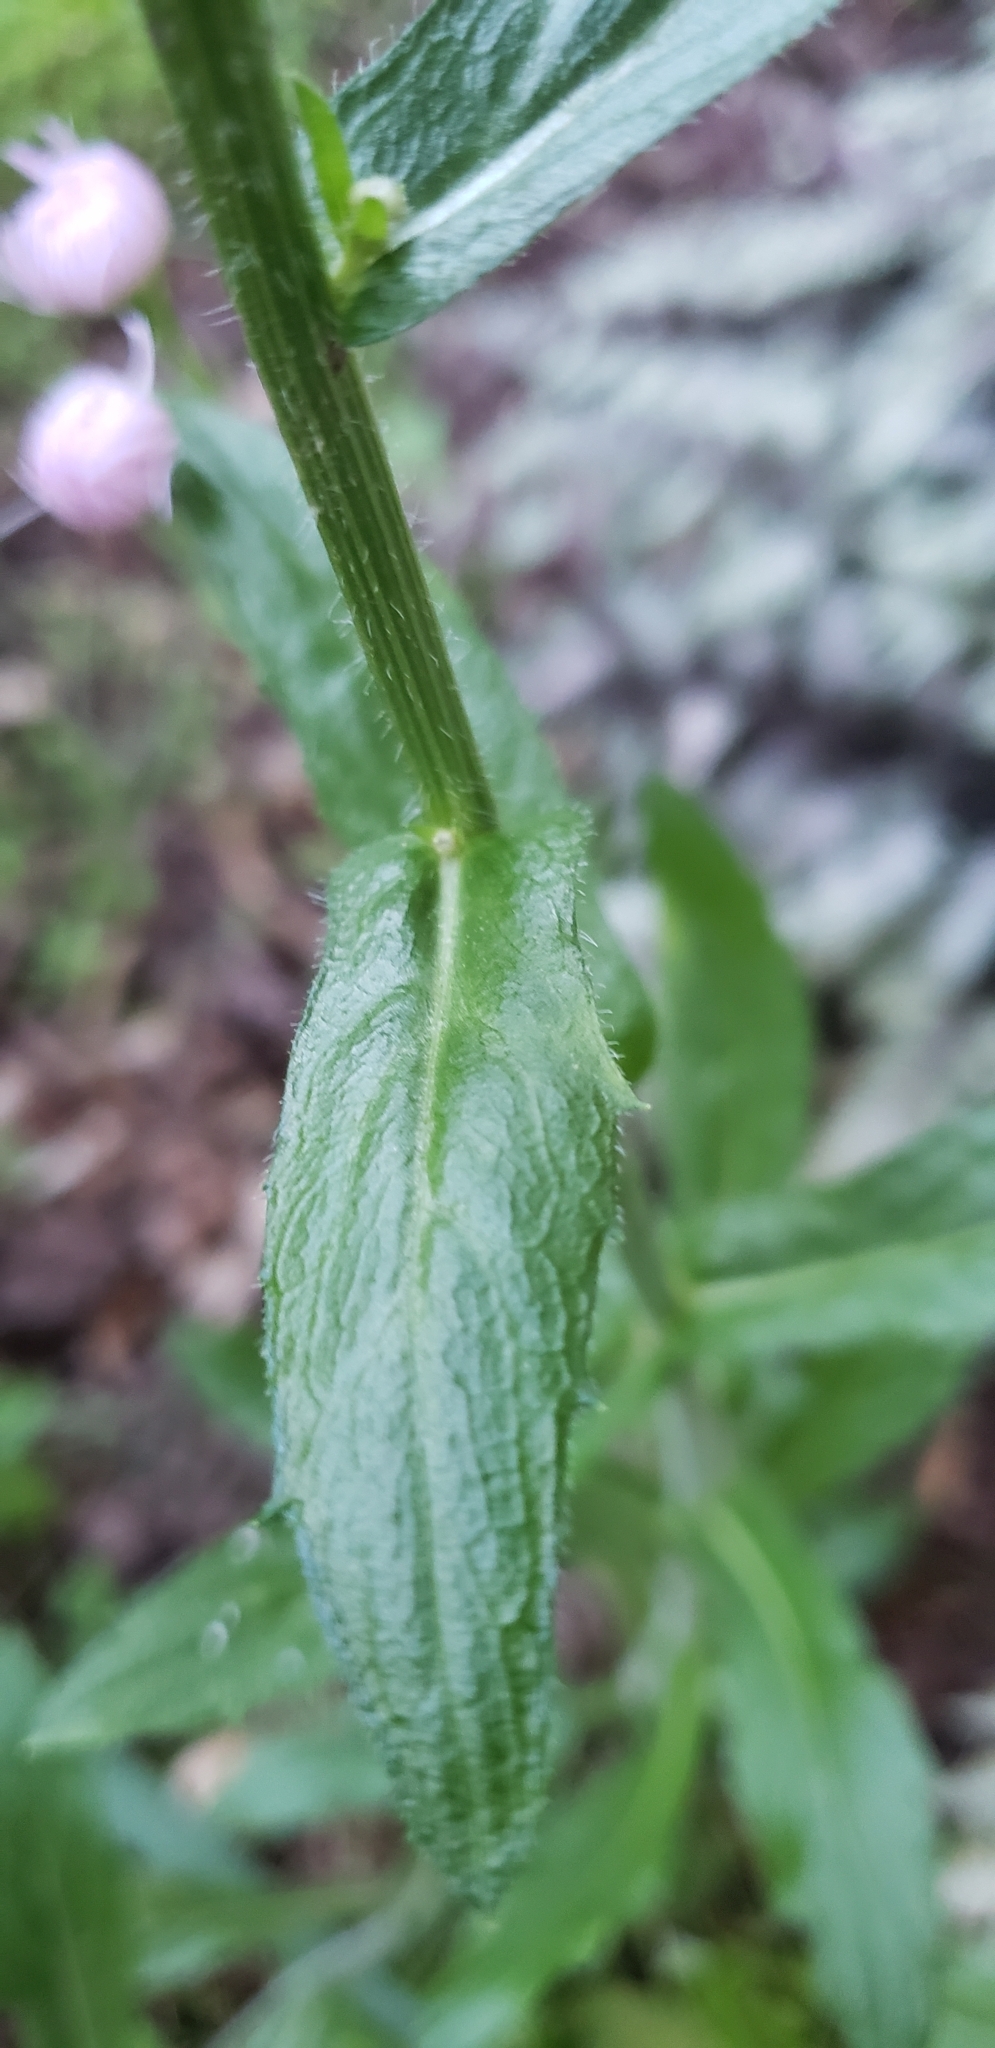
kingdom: Plantae
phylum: Tracheophyta
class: Magnoliopsida
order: Asterales
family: Asteraceae
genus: Erigeron
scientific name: Erigeron philadelphicus
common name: Robin's-plantain
